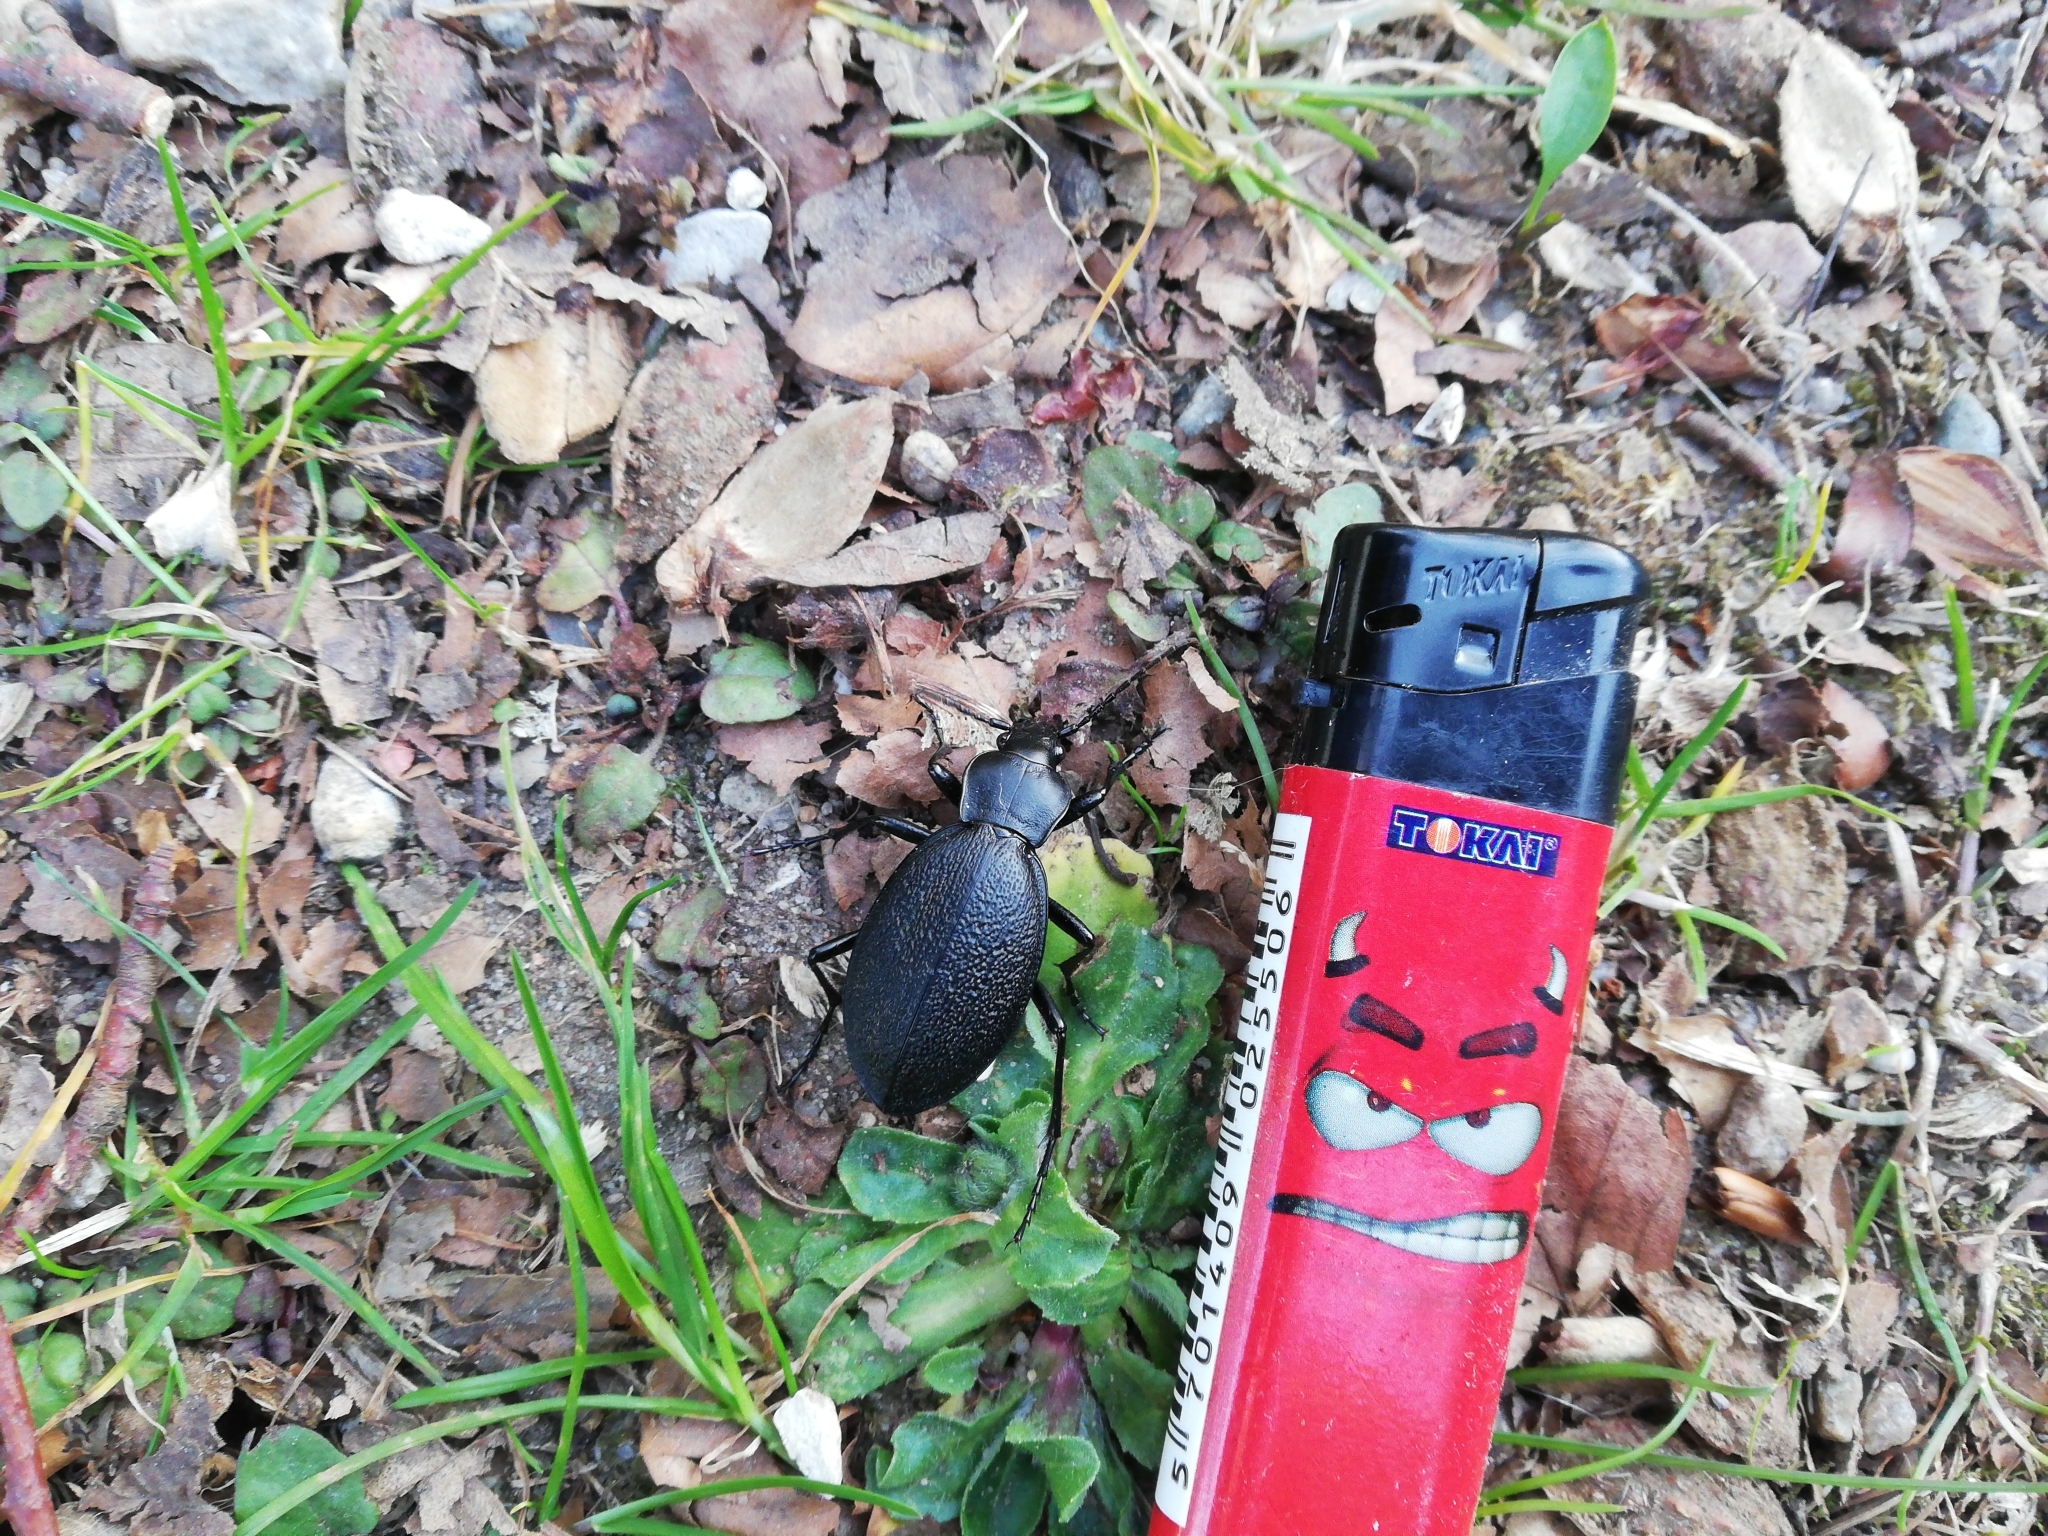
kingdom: Animalia
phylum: Arthropoda
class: Insecta
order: Coleoptera
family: Carabidae
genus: Carabus
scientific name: Carabus coriaceus
